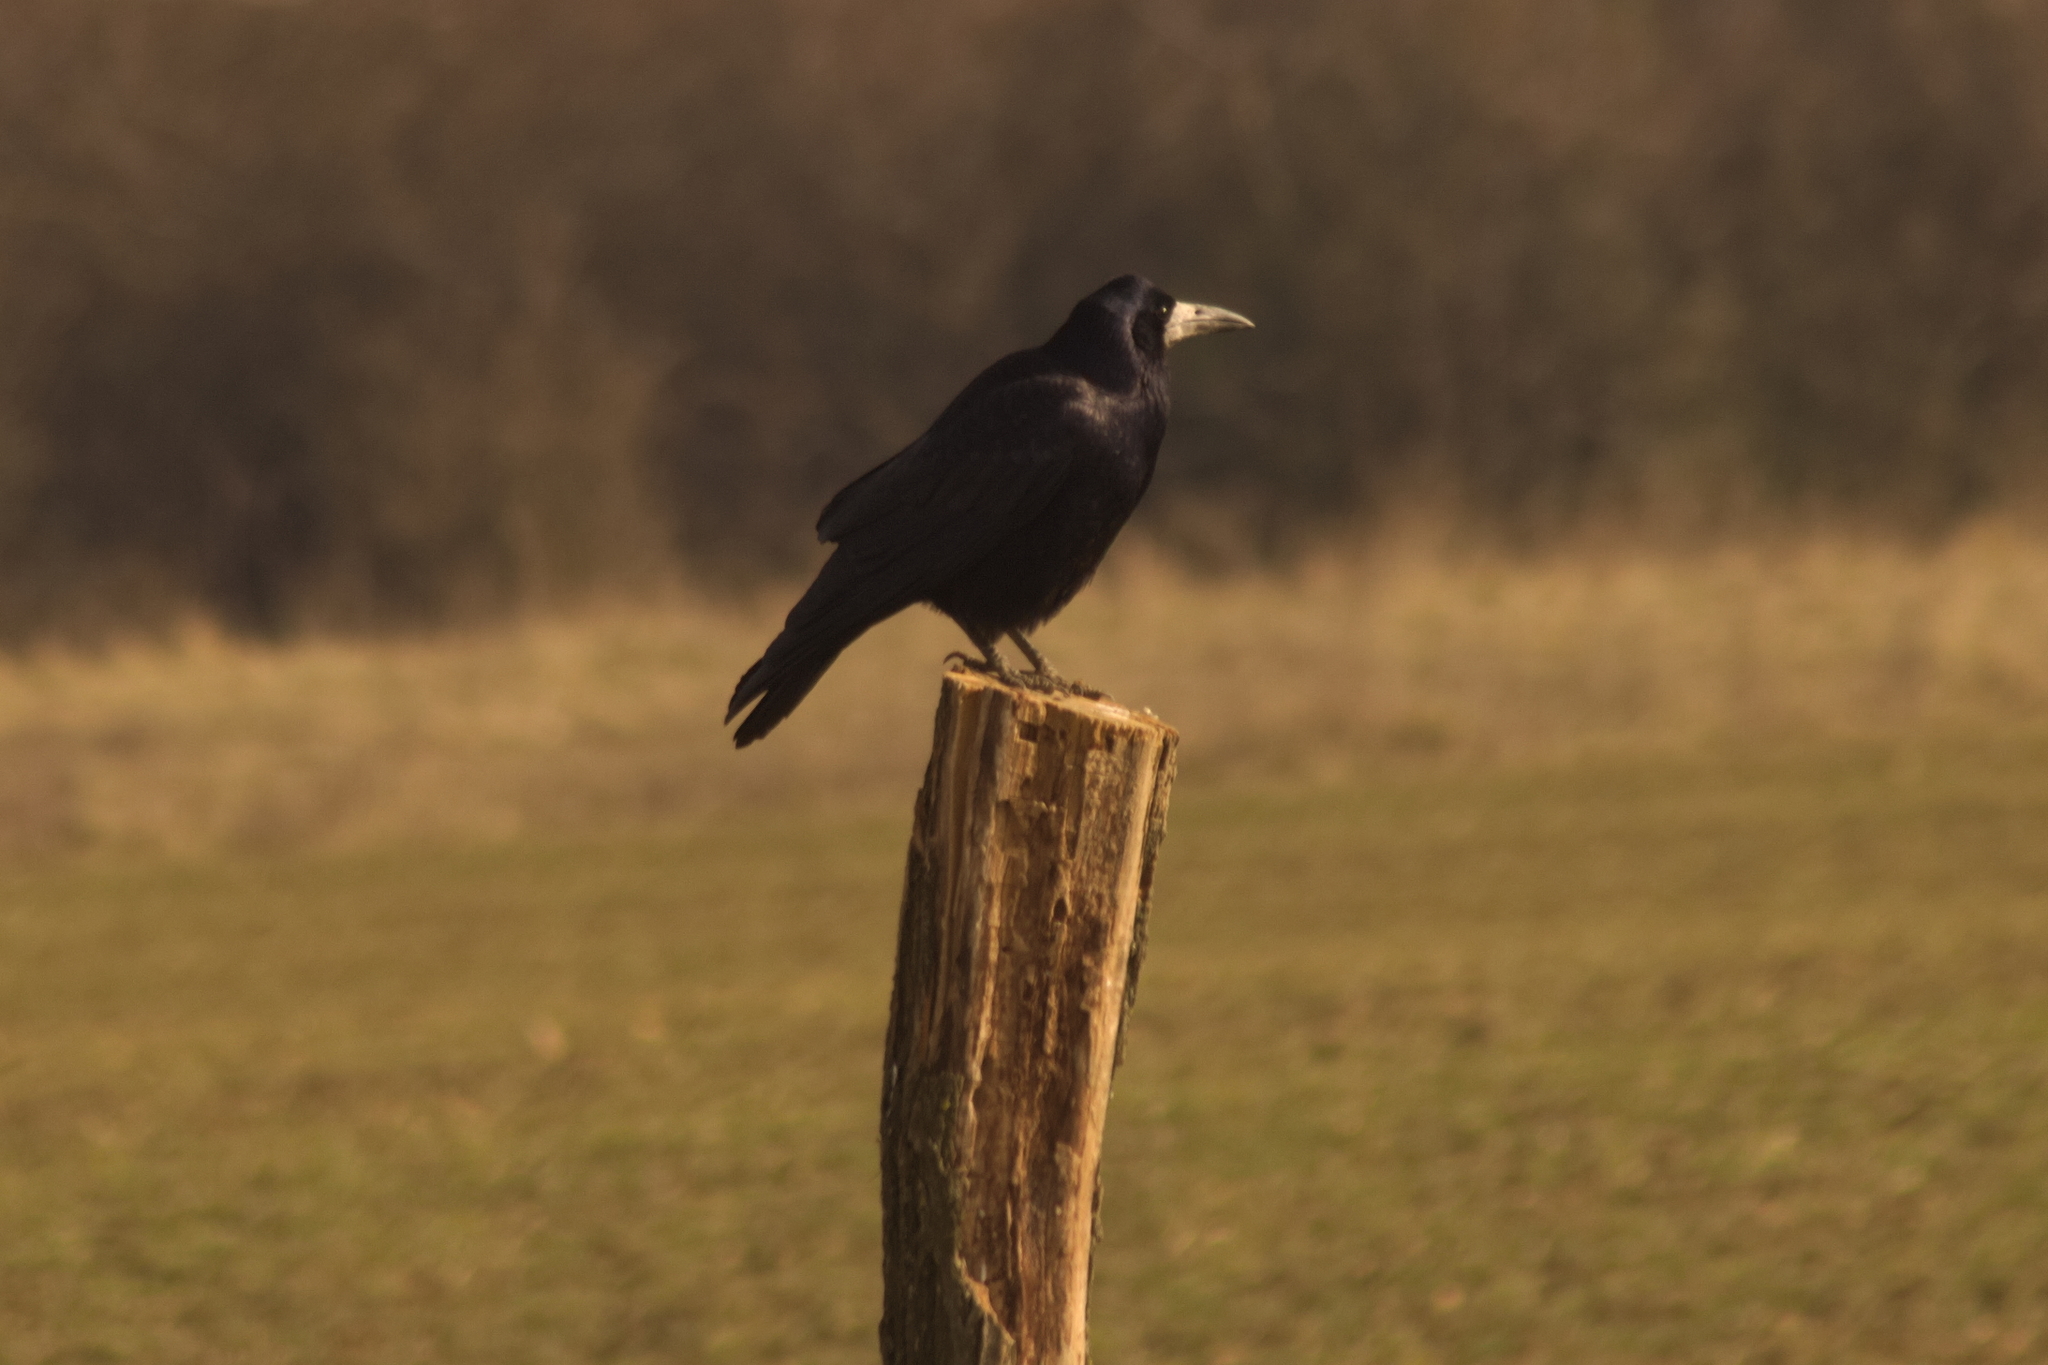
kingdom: Animalia
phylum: Chordata
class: Aves
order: Passeriformes
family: Corvidae
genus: Corvus
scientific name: Corvus frugilegus
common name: Rook
